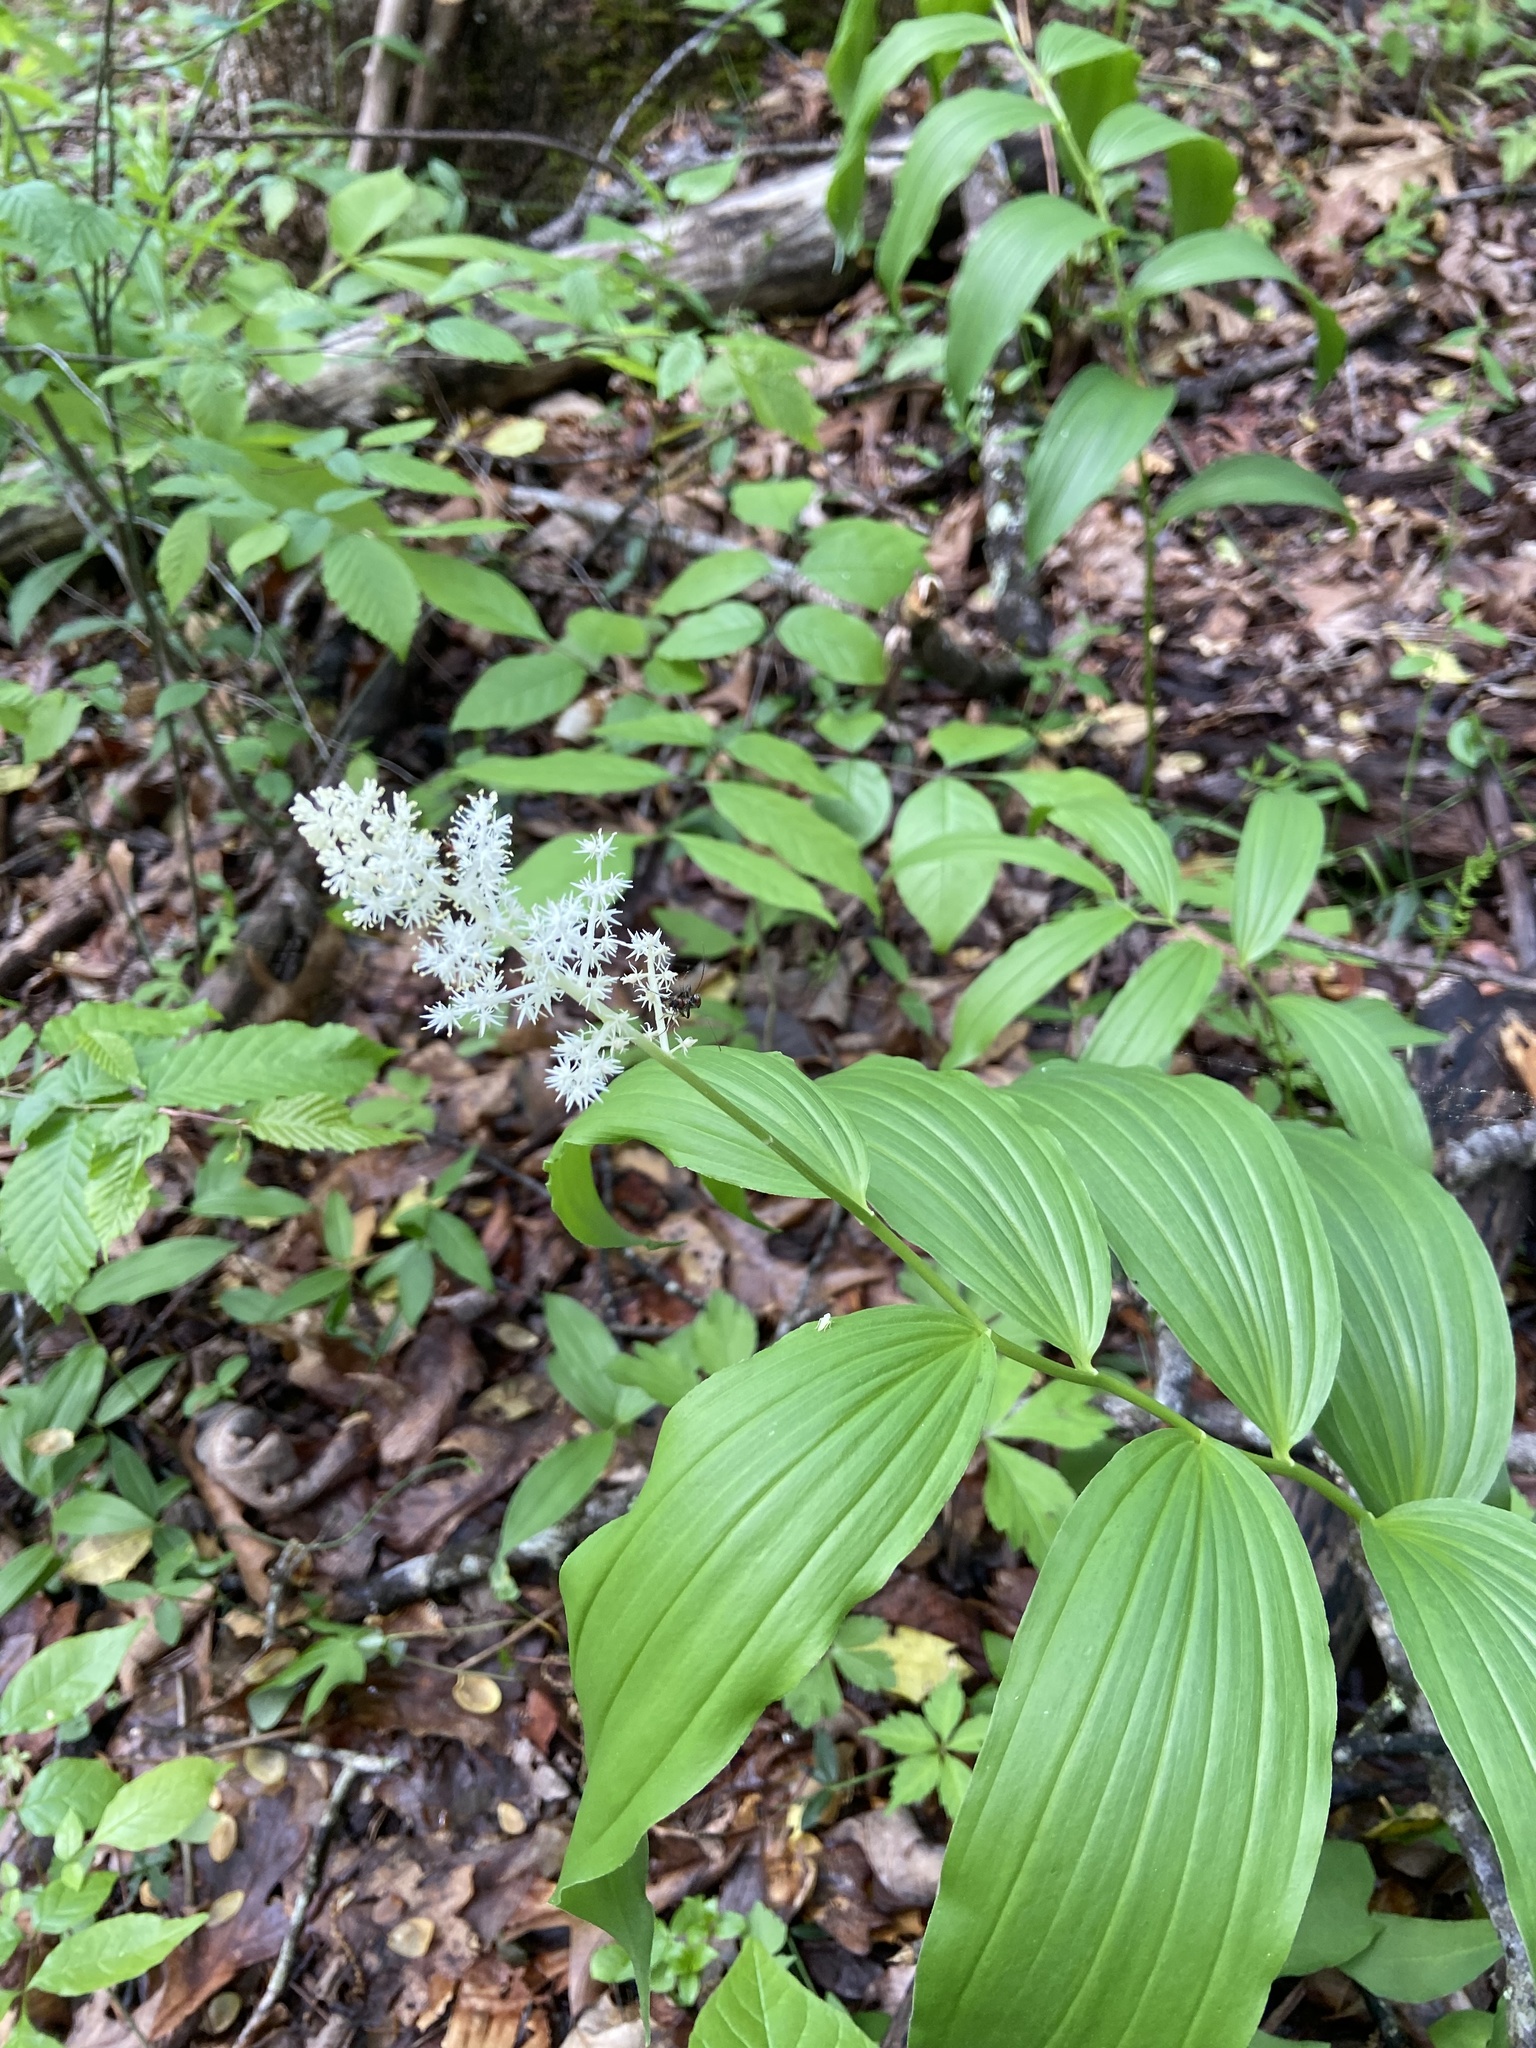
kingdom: Plantae
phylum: Tracheophyta
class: Liliopsida
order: Asparagales
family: Asparagaceae
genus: Maianthemum
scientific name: Maianthemum racemosum
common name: False spikenard
